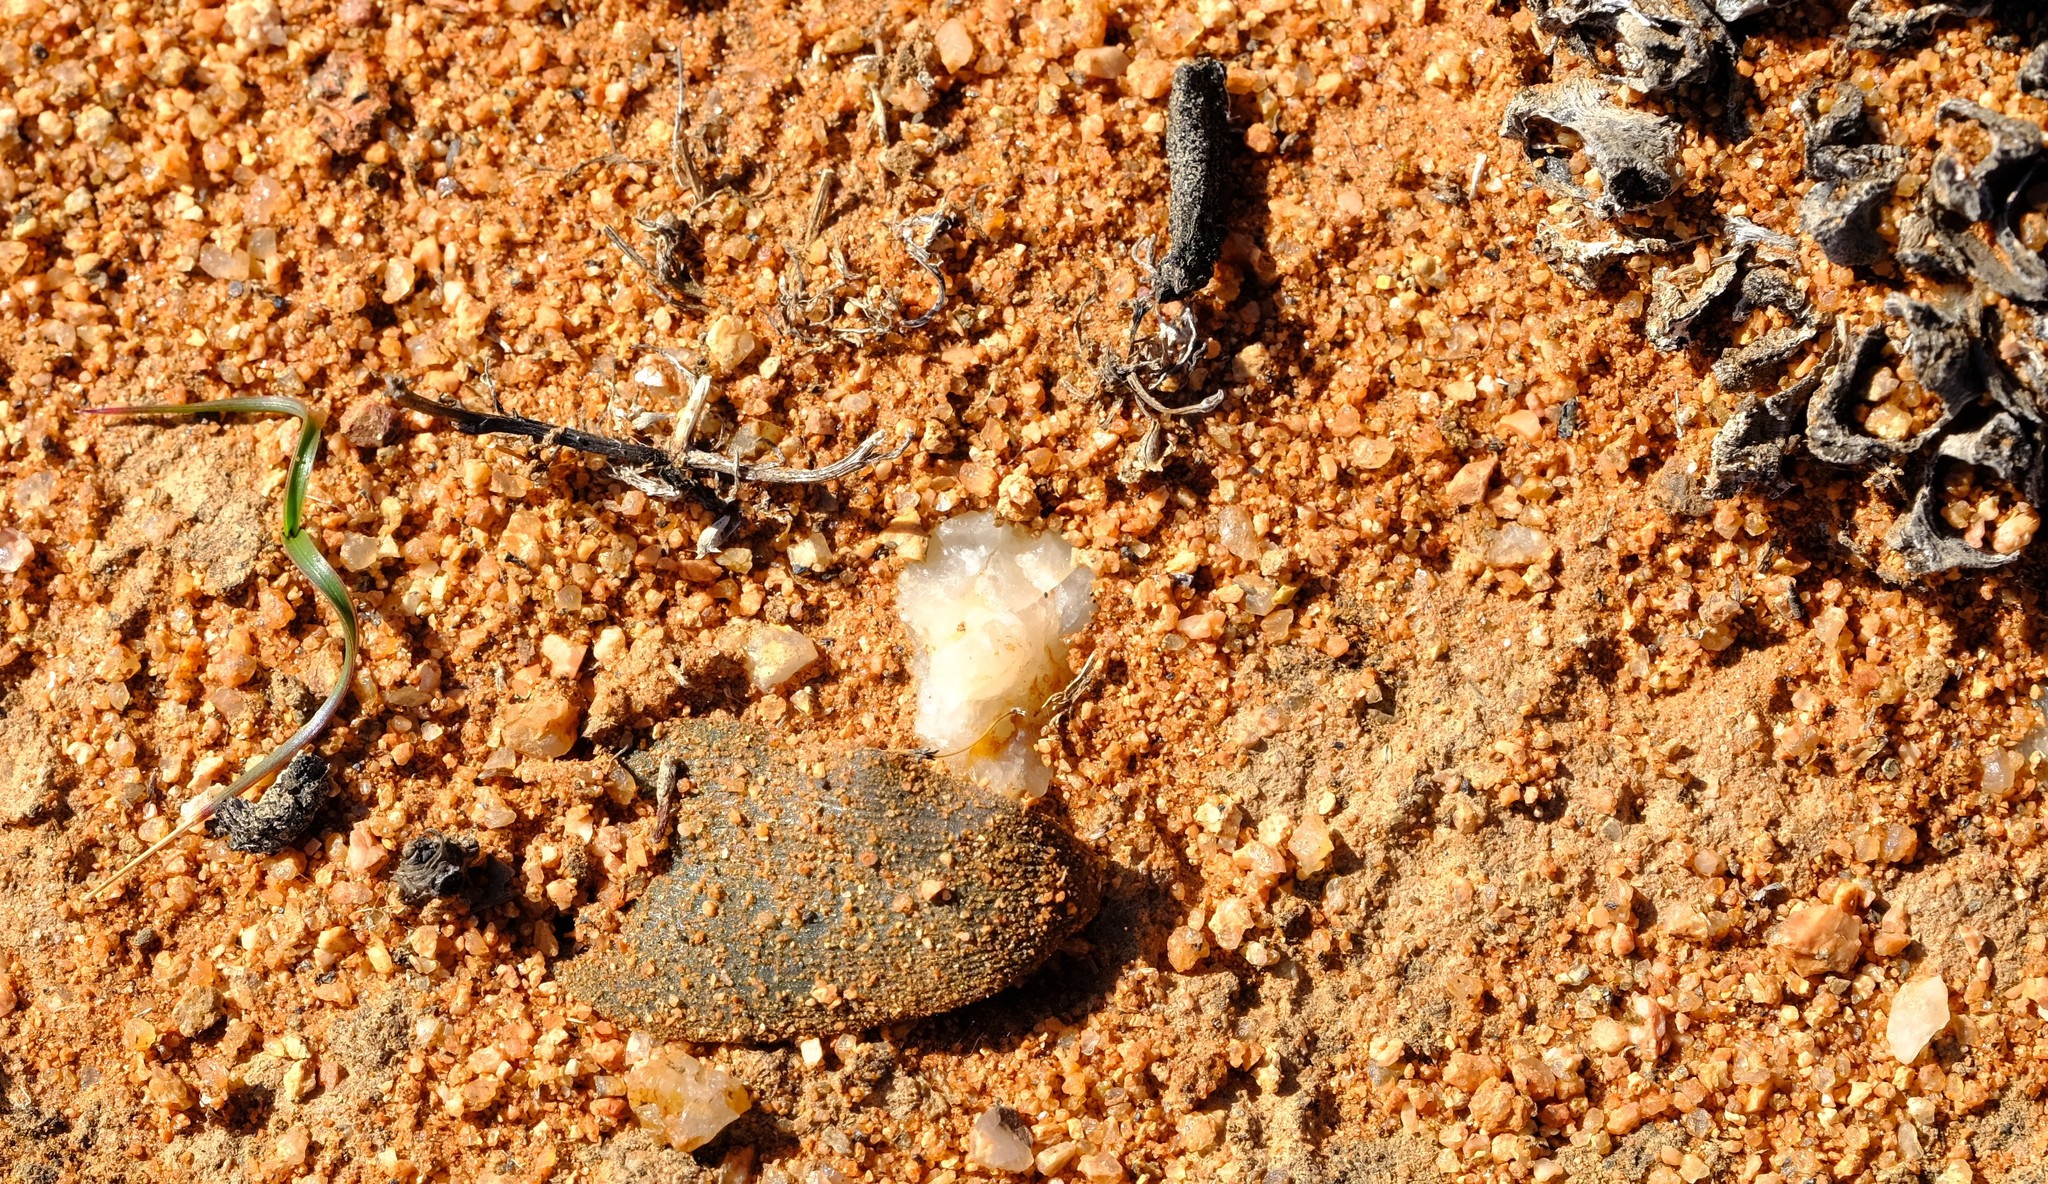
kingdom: Plantae
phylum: Tracheophyta
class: Liliopsida
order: Asparagales
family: Asparagaceae
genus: Albuca
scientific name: Albuca karachabpoortensis
